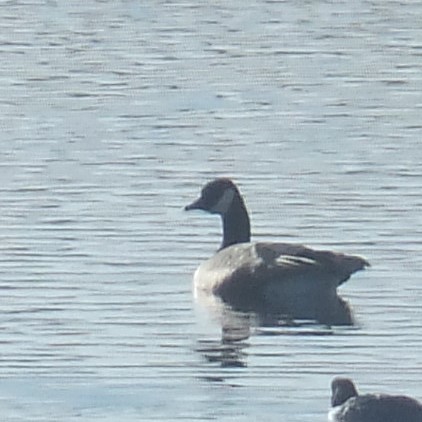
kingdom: Animalia
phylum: Chordata
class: Aves
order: Anseriformes
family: Anatidae
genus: Branta
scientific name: Branta canadensis
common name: Canada goose
